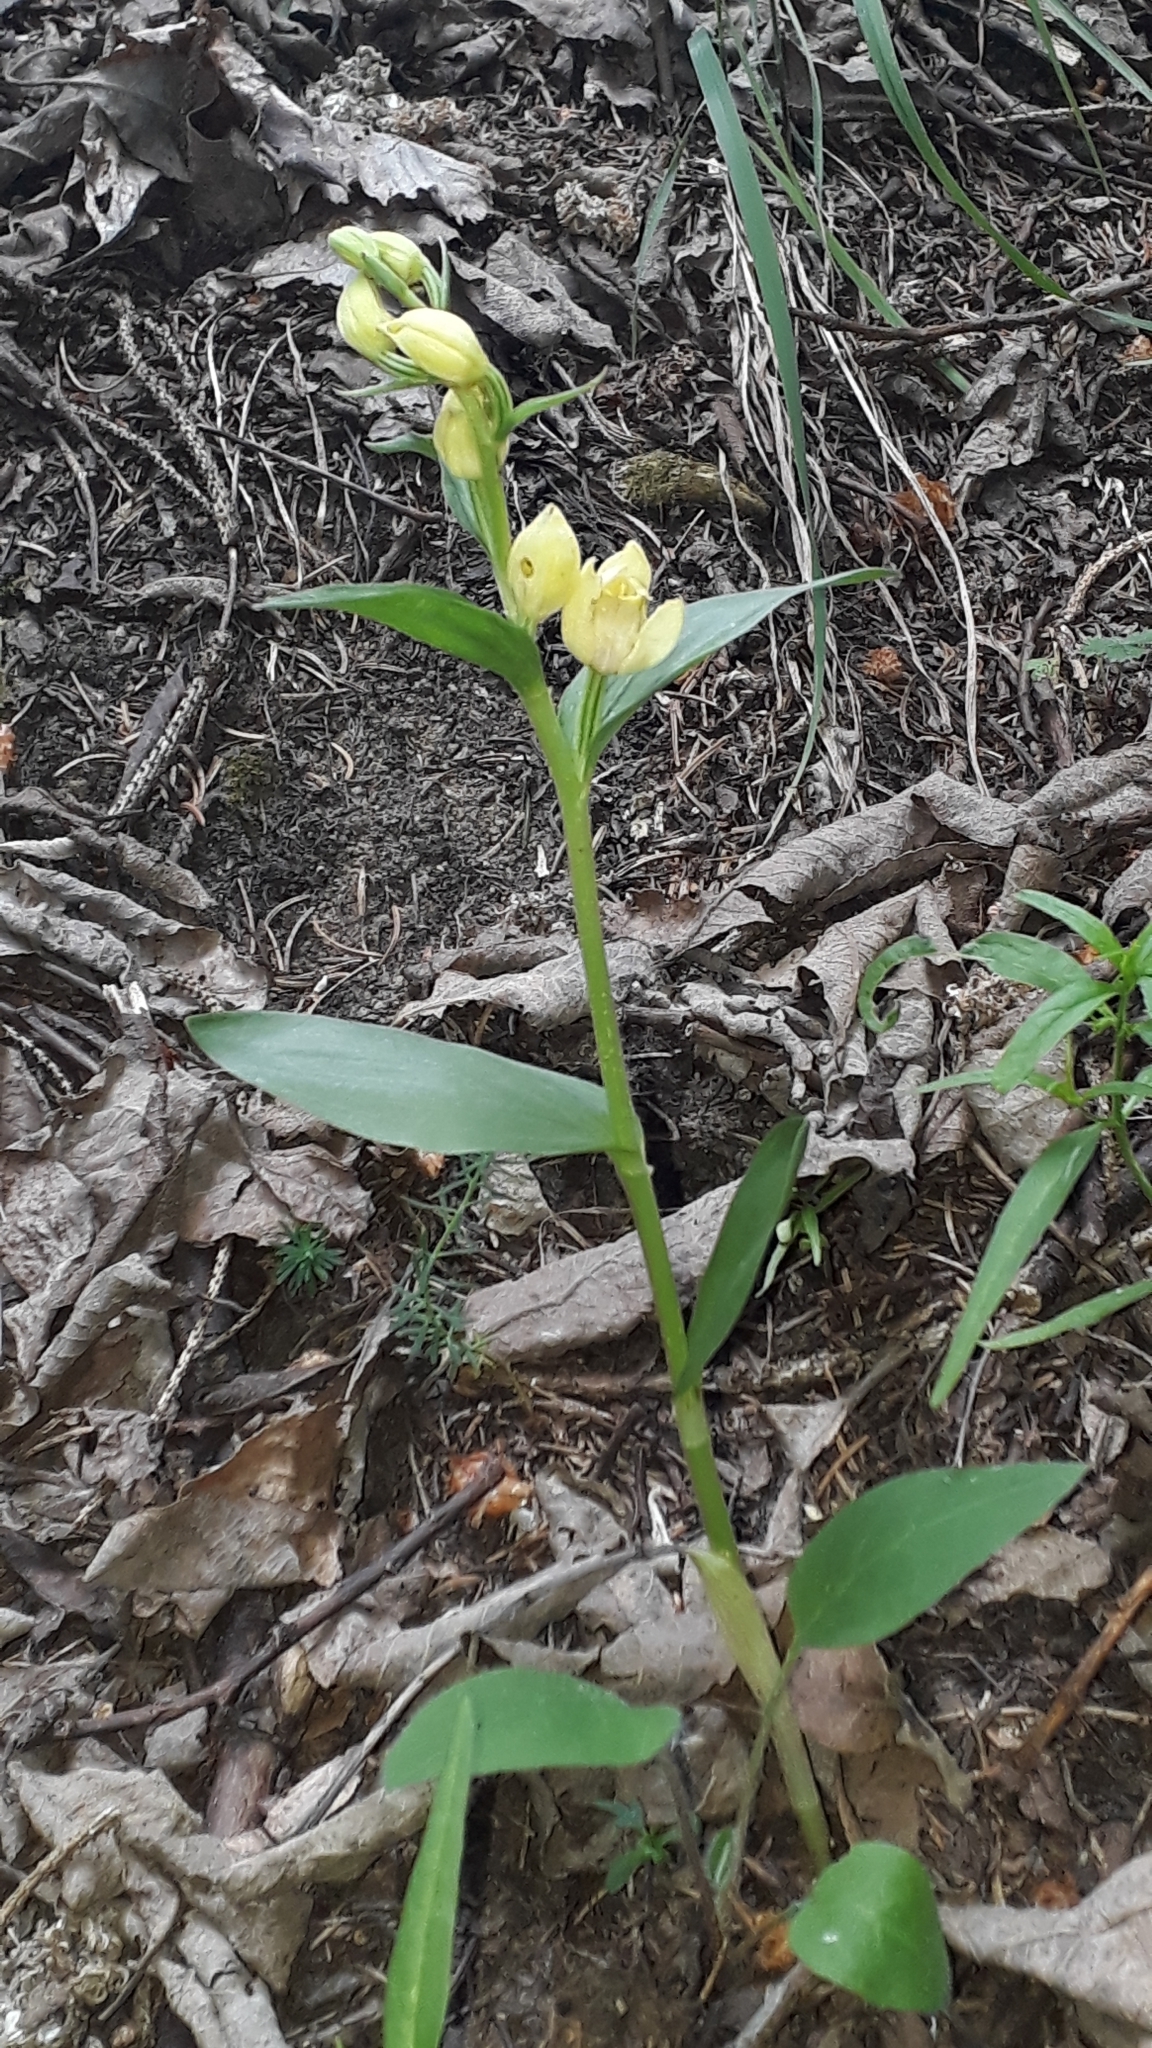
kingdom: Plantae
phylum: Tracheophyta
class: Liliopsida
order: Asparagales
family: Orchidaceae
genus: Cephalanthera
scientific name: Cephalanthera damasonium
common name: White helleborine
